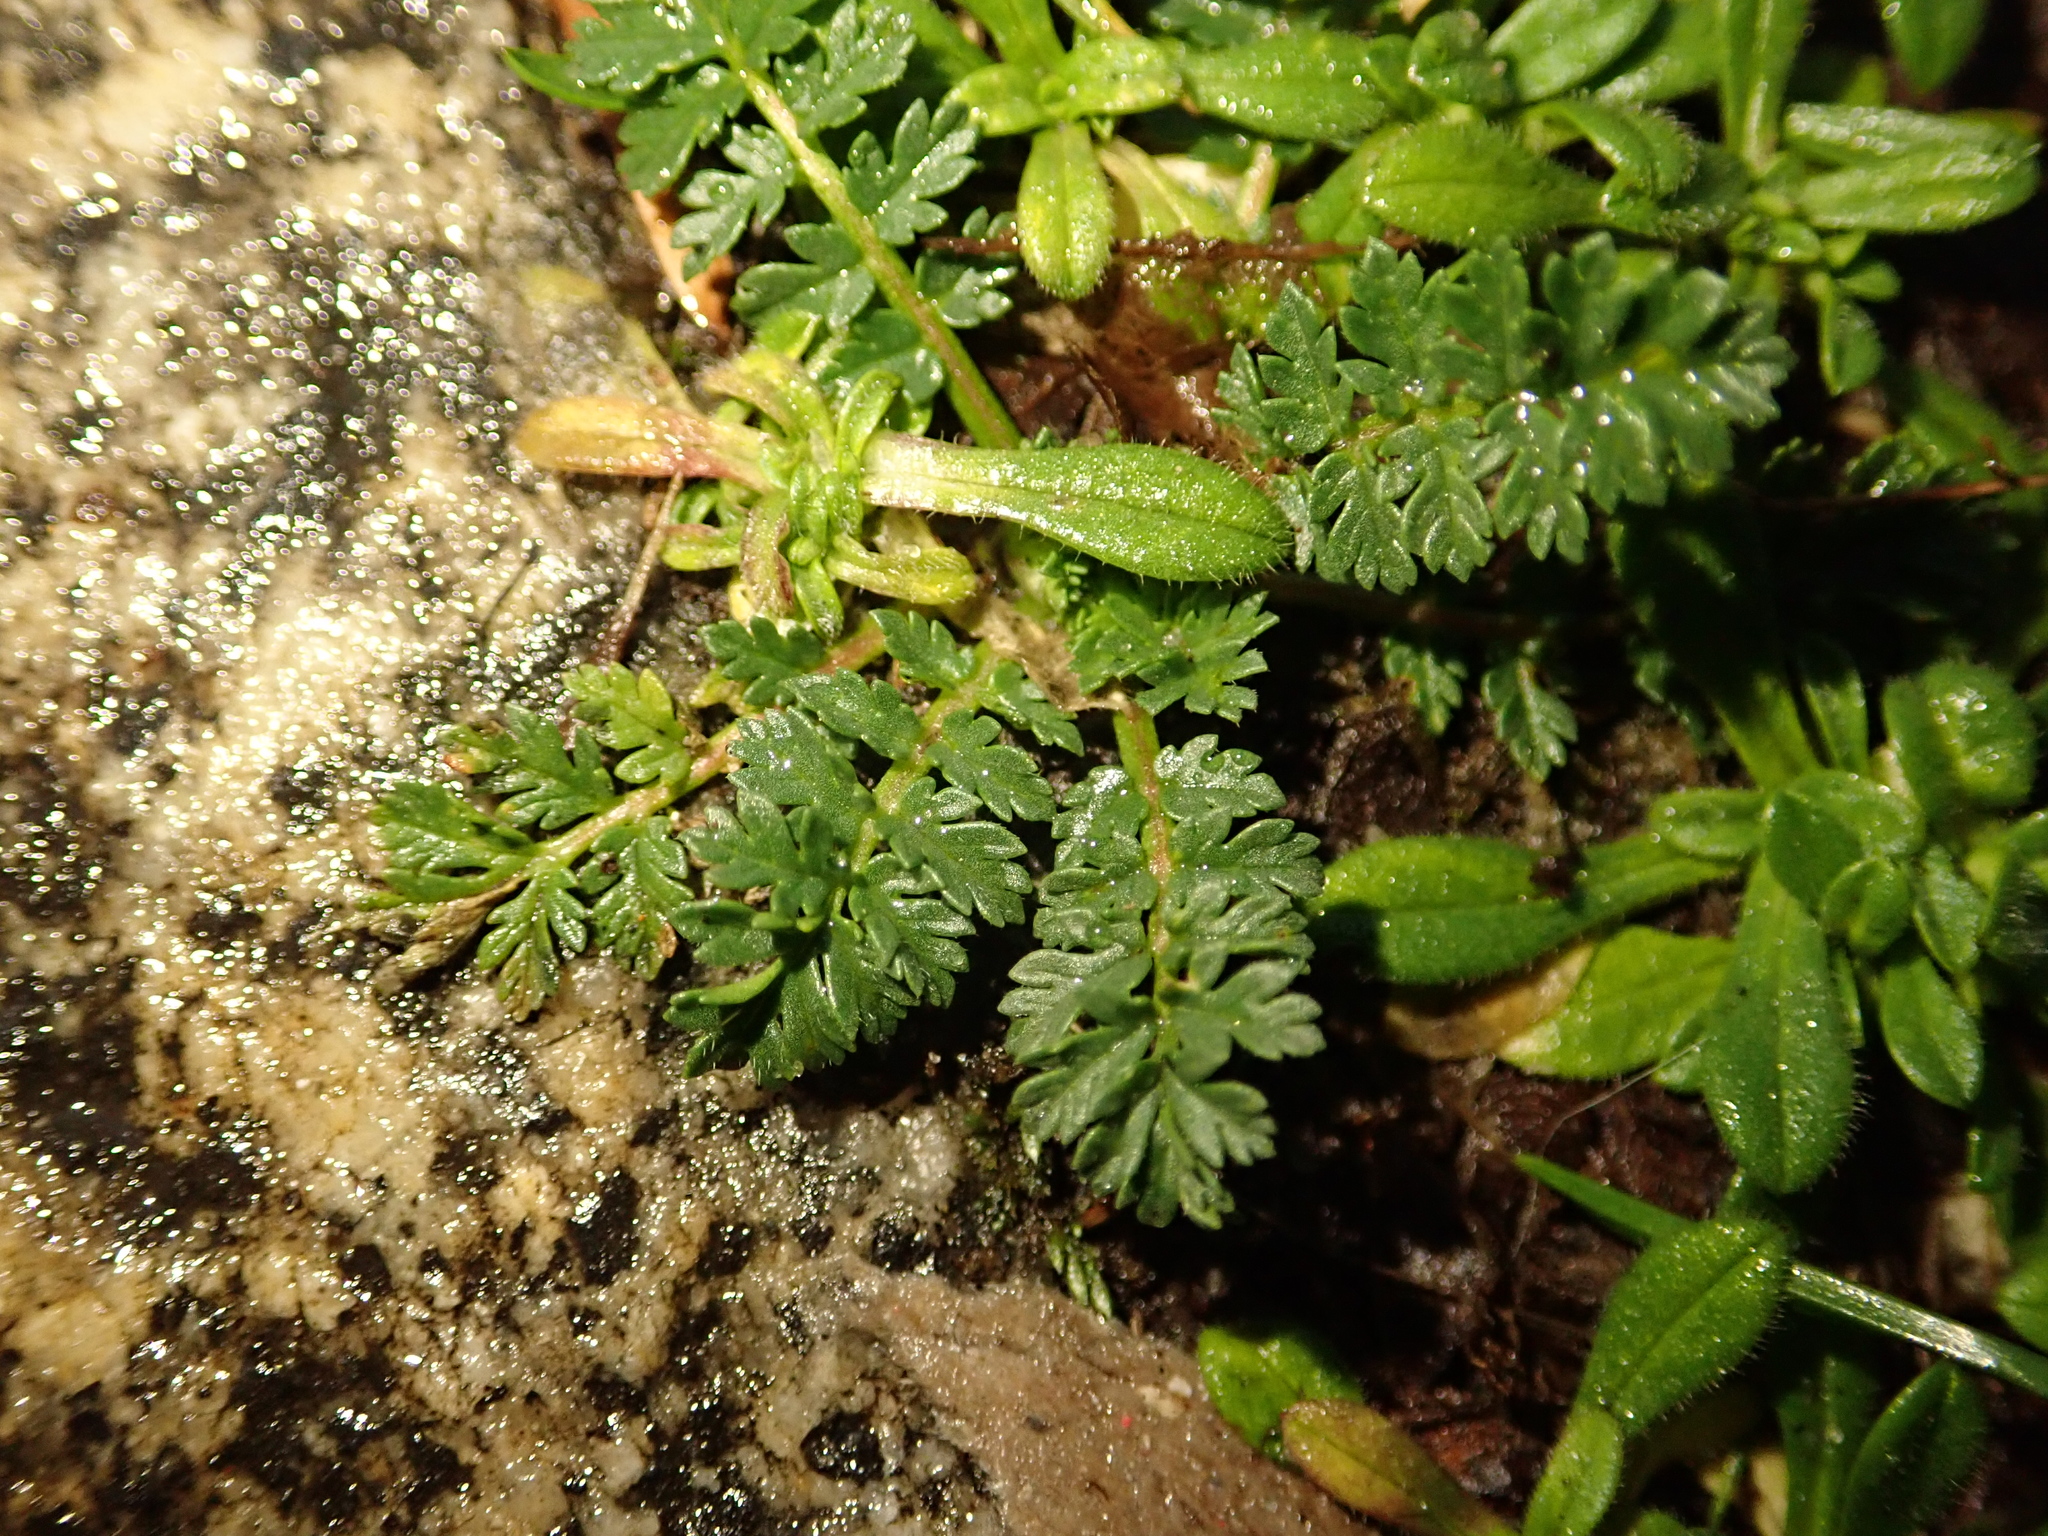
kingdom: Plantae
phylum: Tracheophyta
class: Magnoliopsida
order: Geraniales
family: Geraniaceae
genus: Erodium
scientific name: Erodium cicutarium
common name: Common stork's-bill
